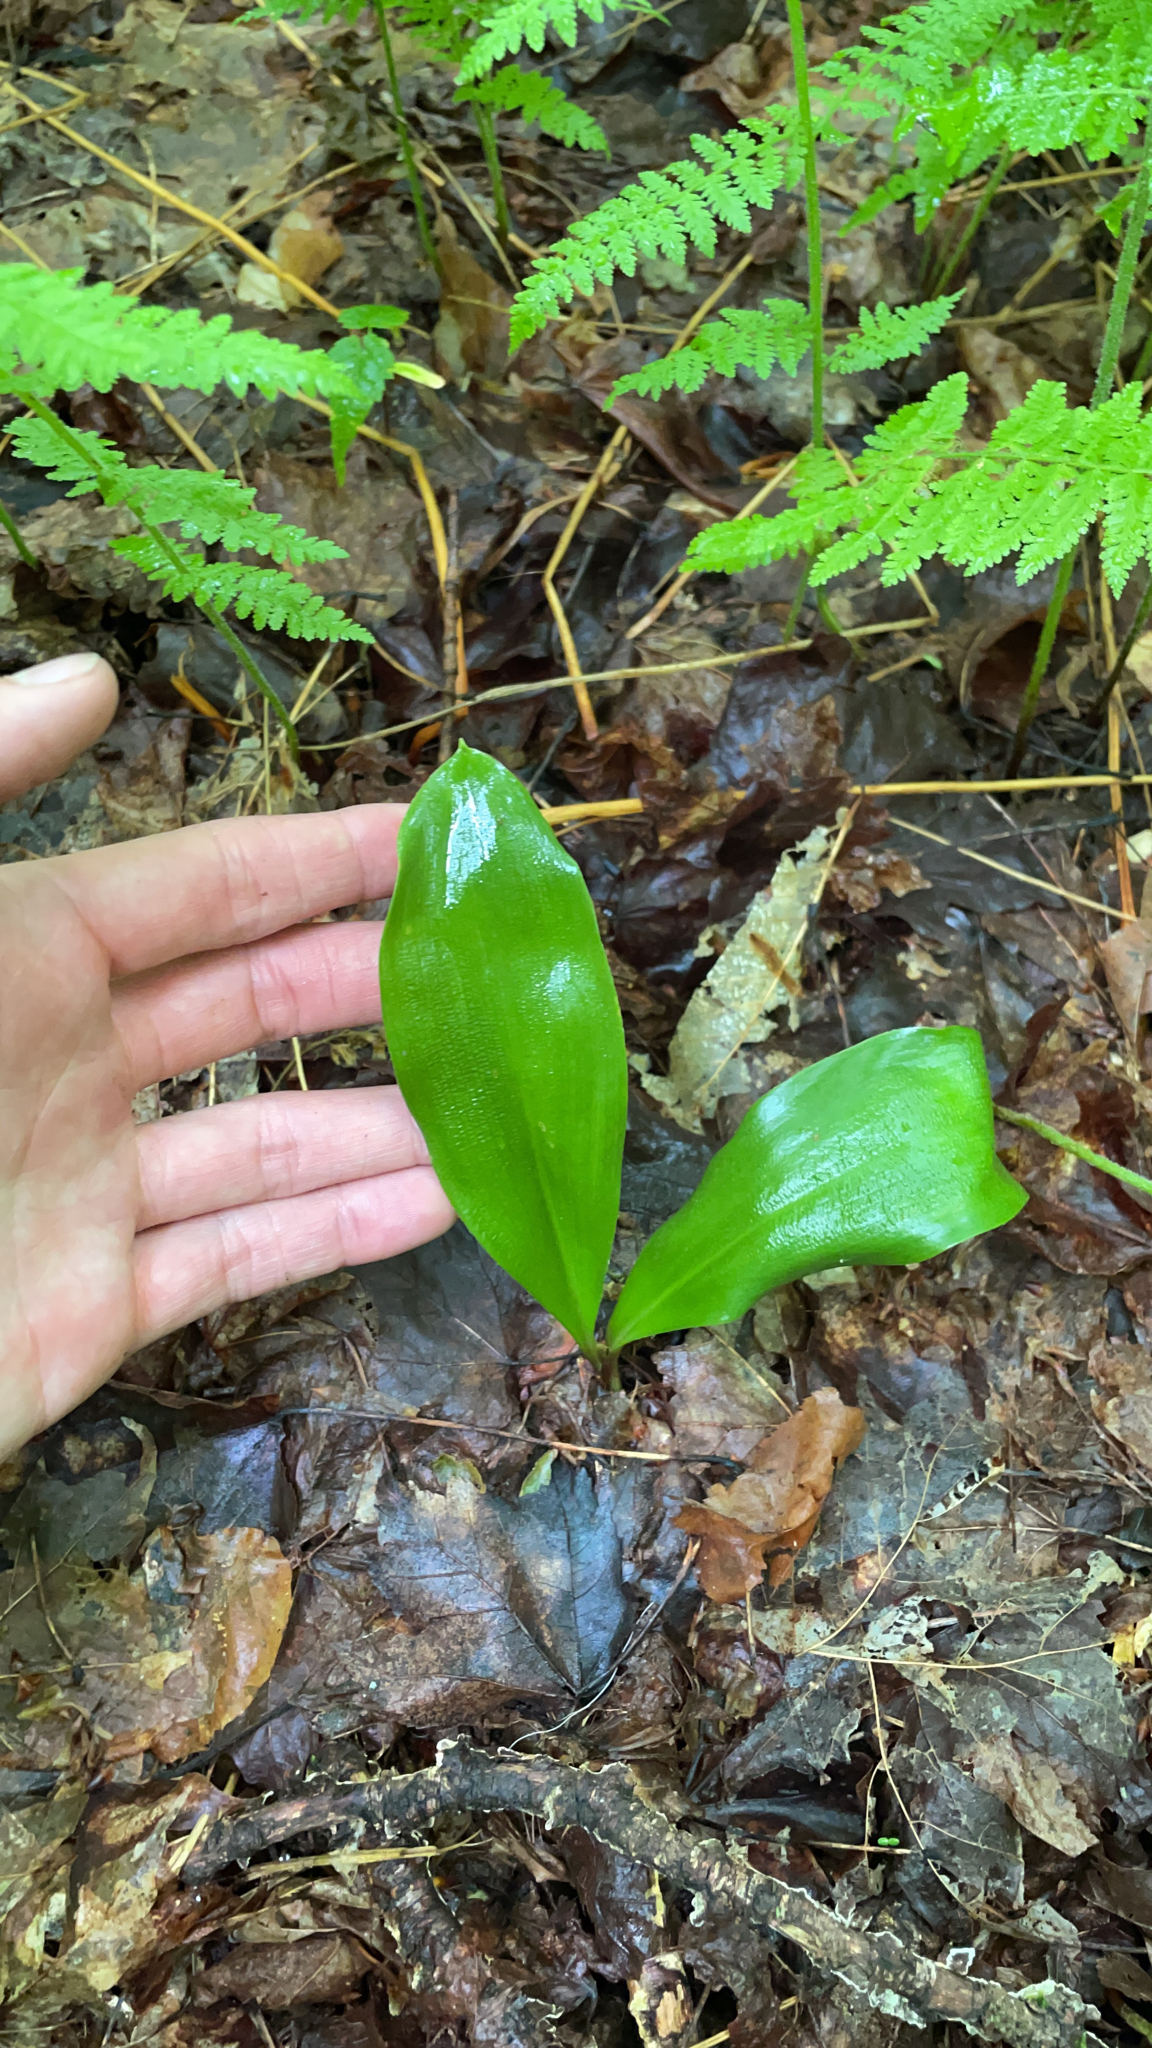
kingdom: Plantae
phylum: Tracheophyta
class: Liliopsida
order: Liliales
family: Liliaceae
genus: Clintonia
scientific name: Clintonia borealis
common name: Yellow clintonia
